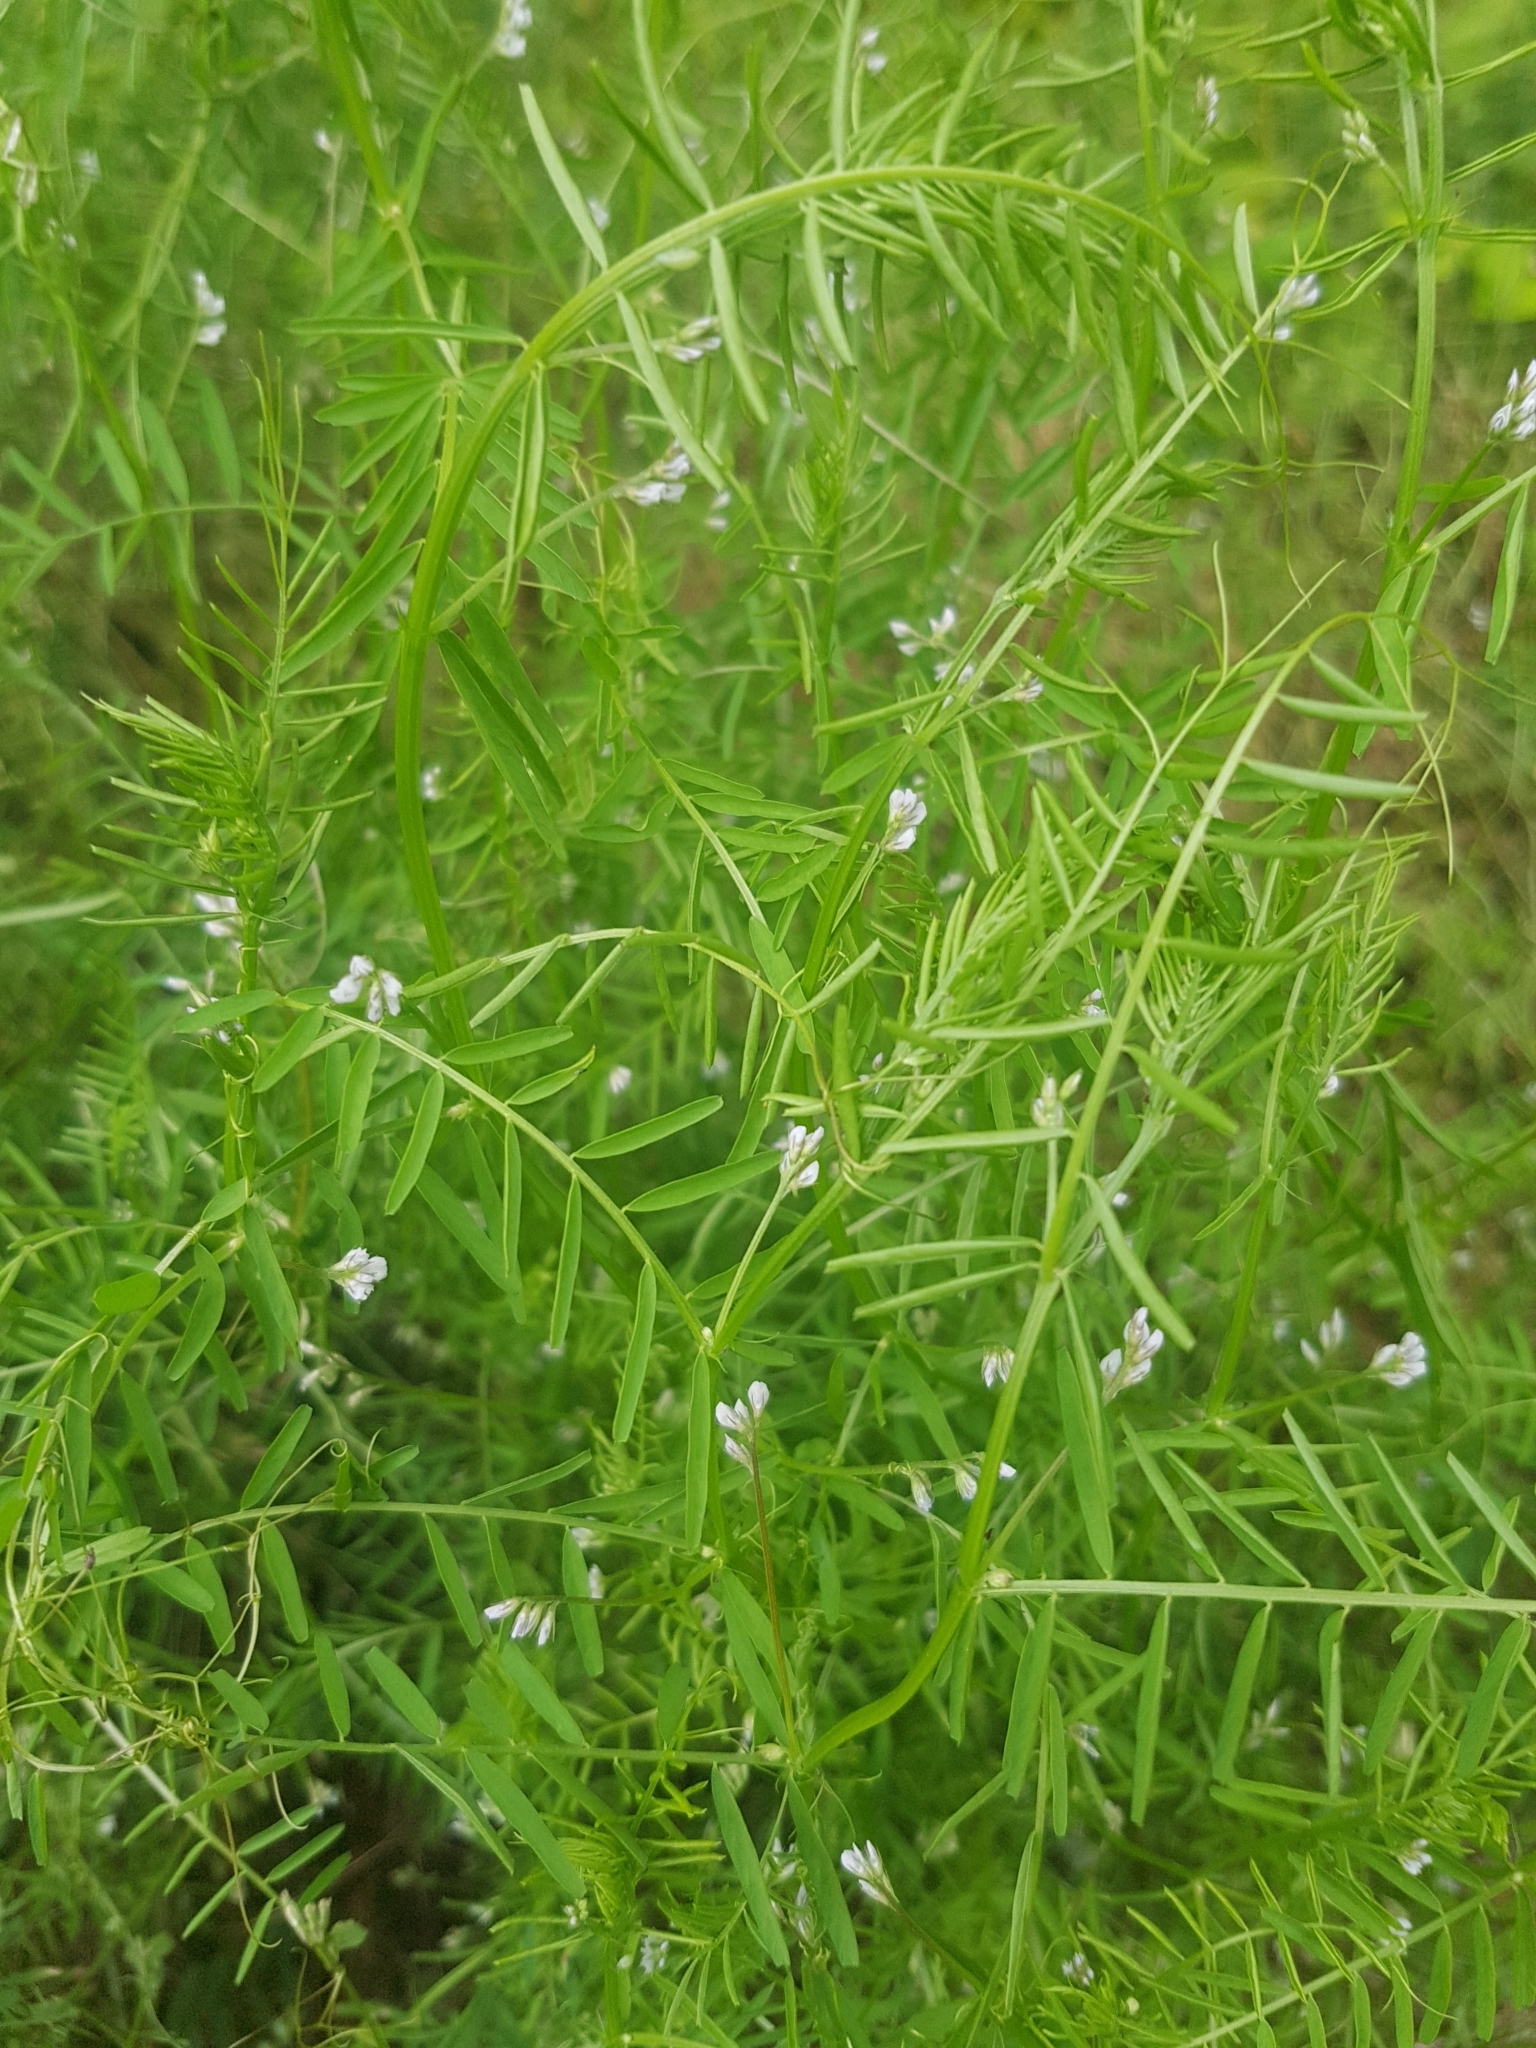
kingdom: Plantae
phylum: Tracheophyta
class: Magnoliopsida
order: Fabales
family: Fabaceae
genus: Vicia
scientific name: Vicia hirsuta
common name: Tiny vetch
